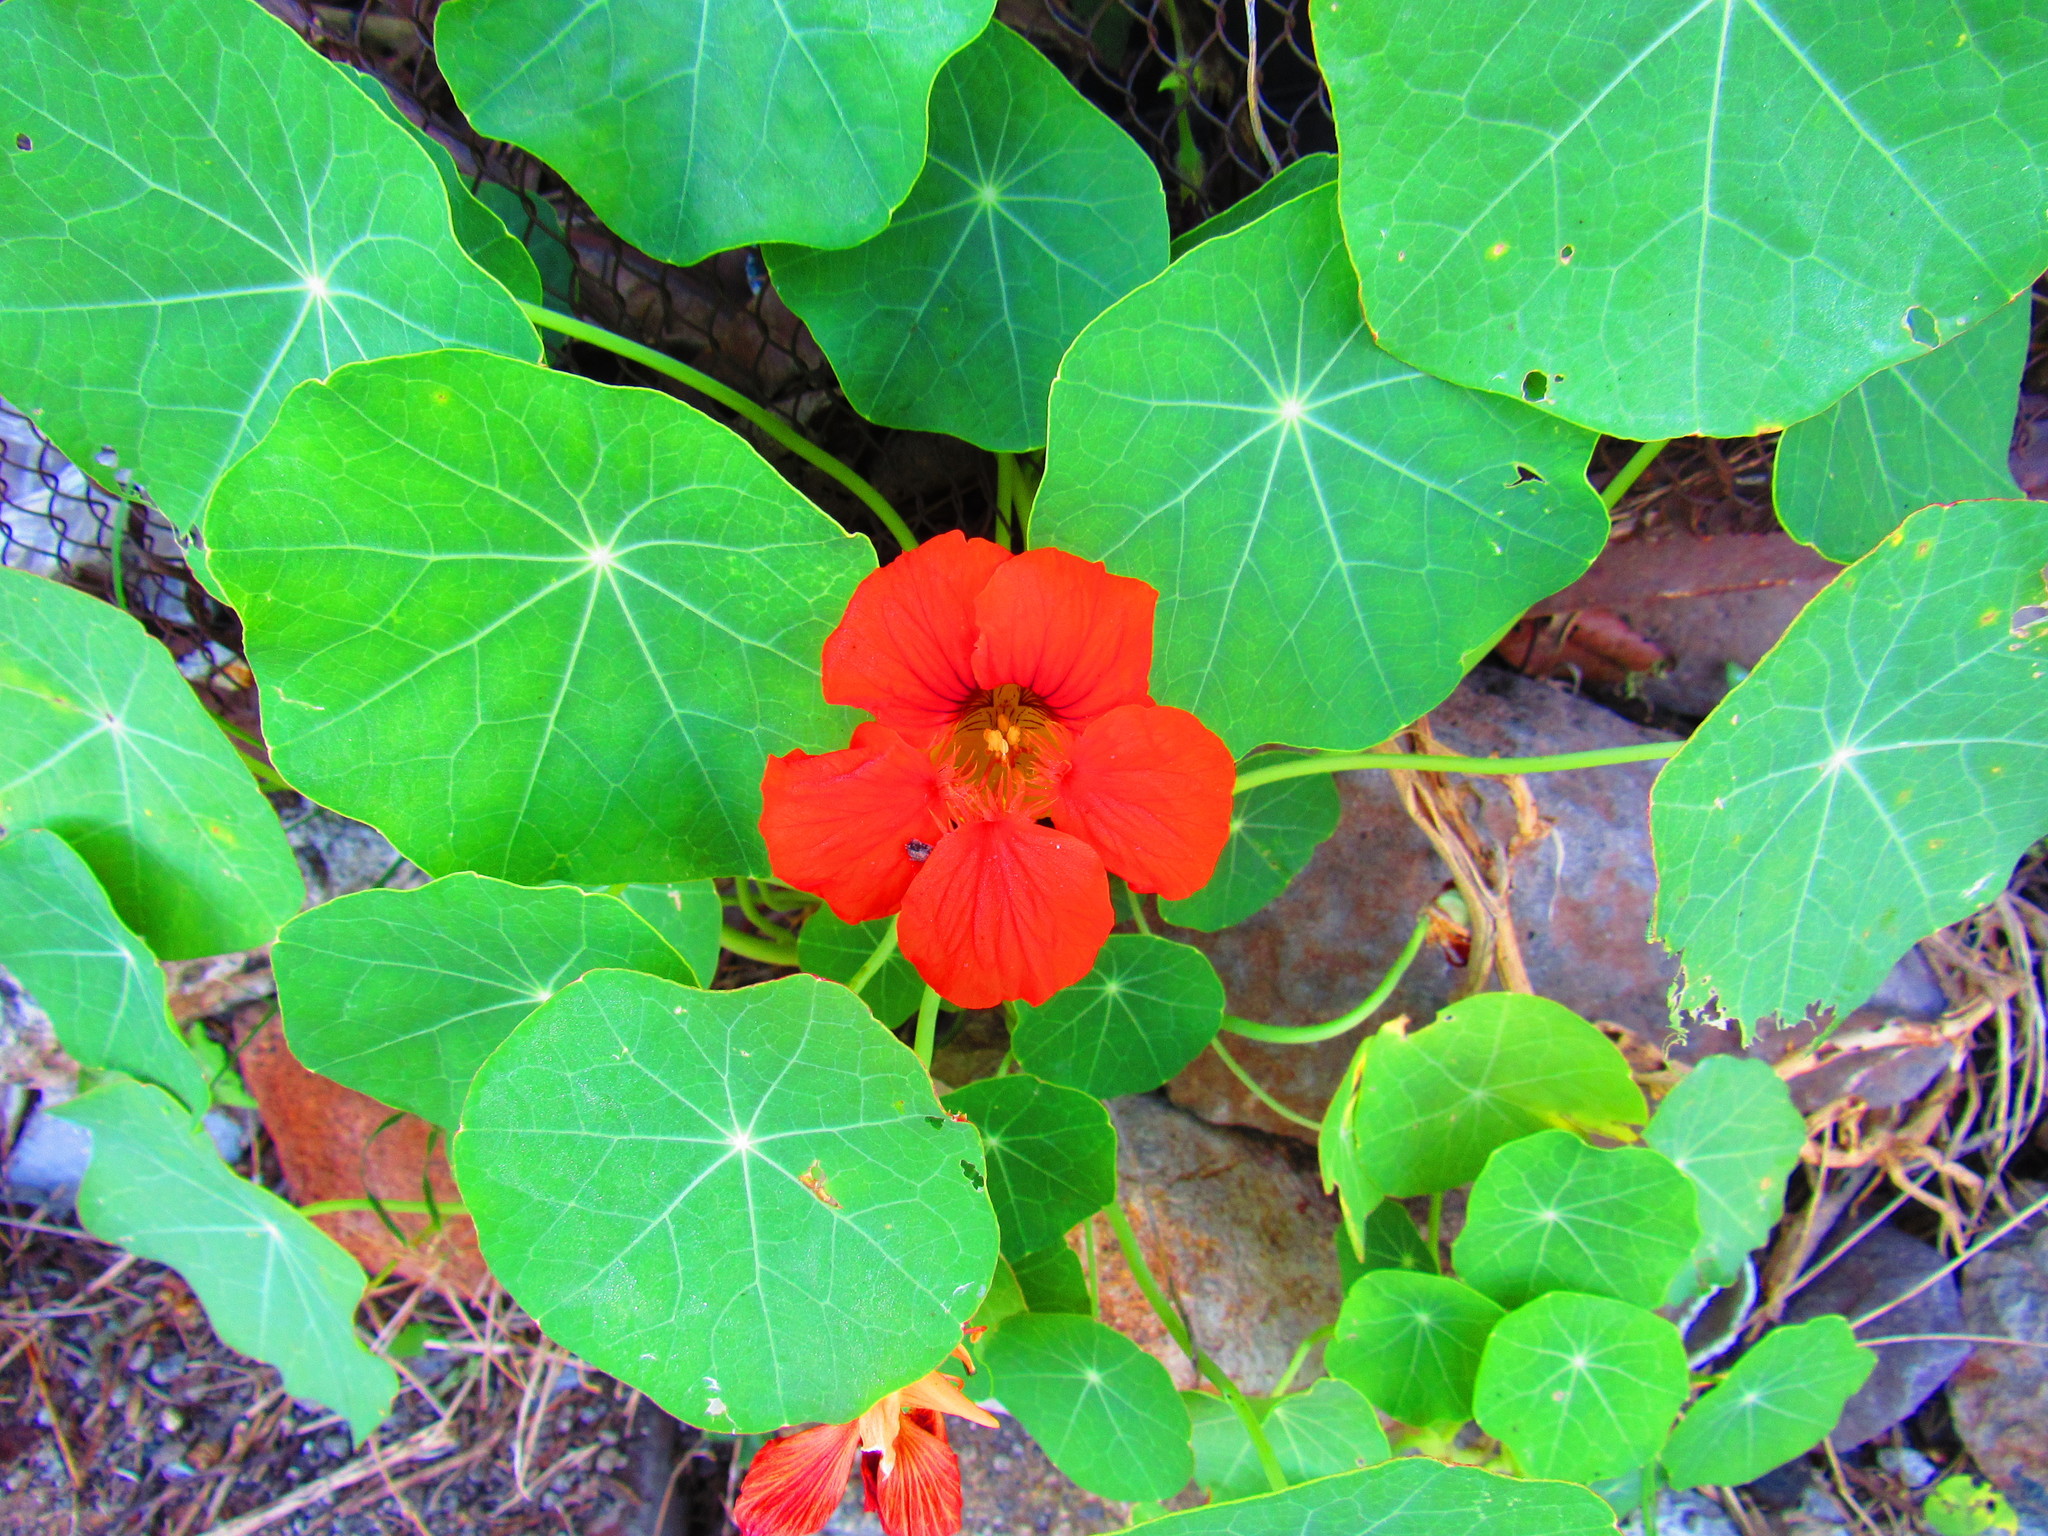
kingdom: Plantae
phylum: Tracheophyta
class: Magnoliopsida
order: Brassicales
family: Tropaeolaceae
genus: Tropaeolum
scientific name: Tropaeolum majus
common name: Nasturtium
